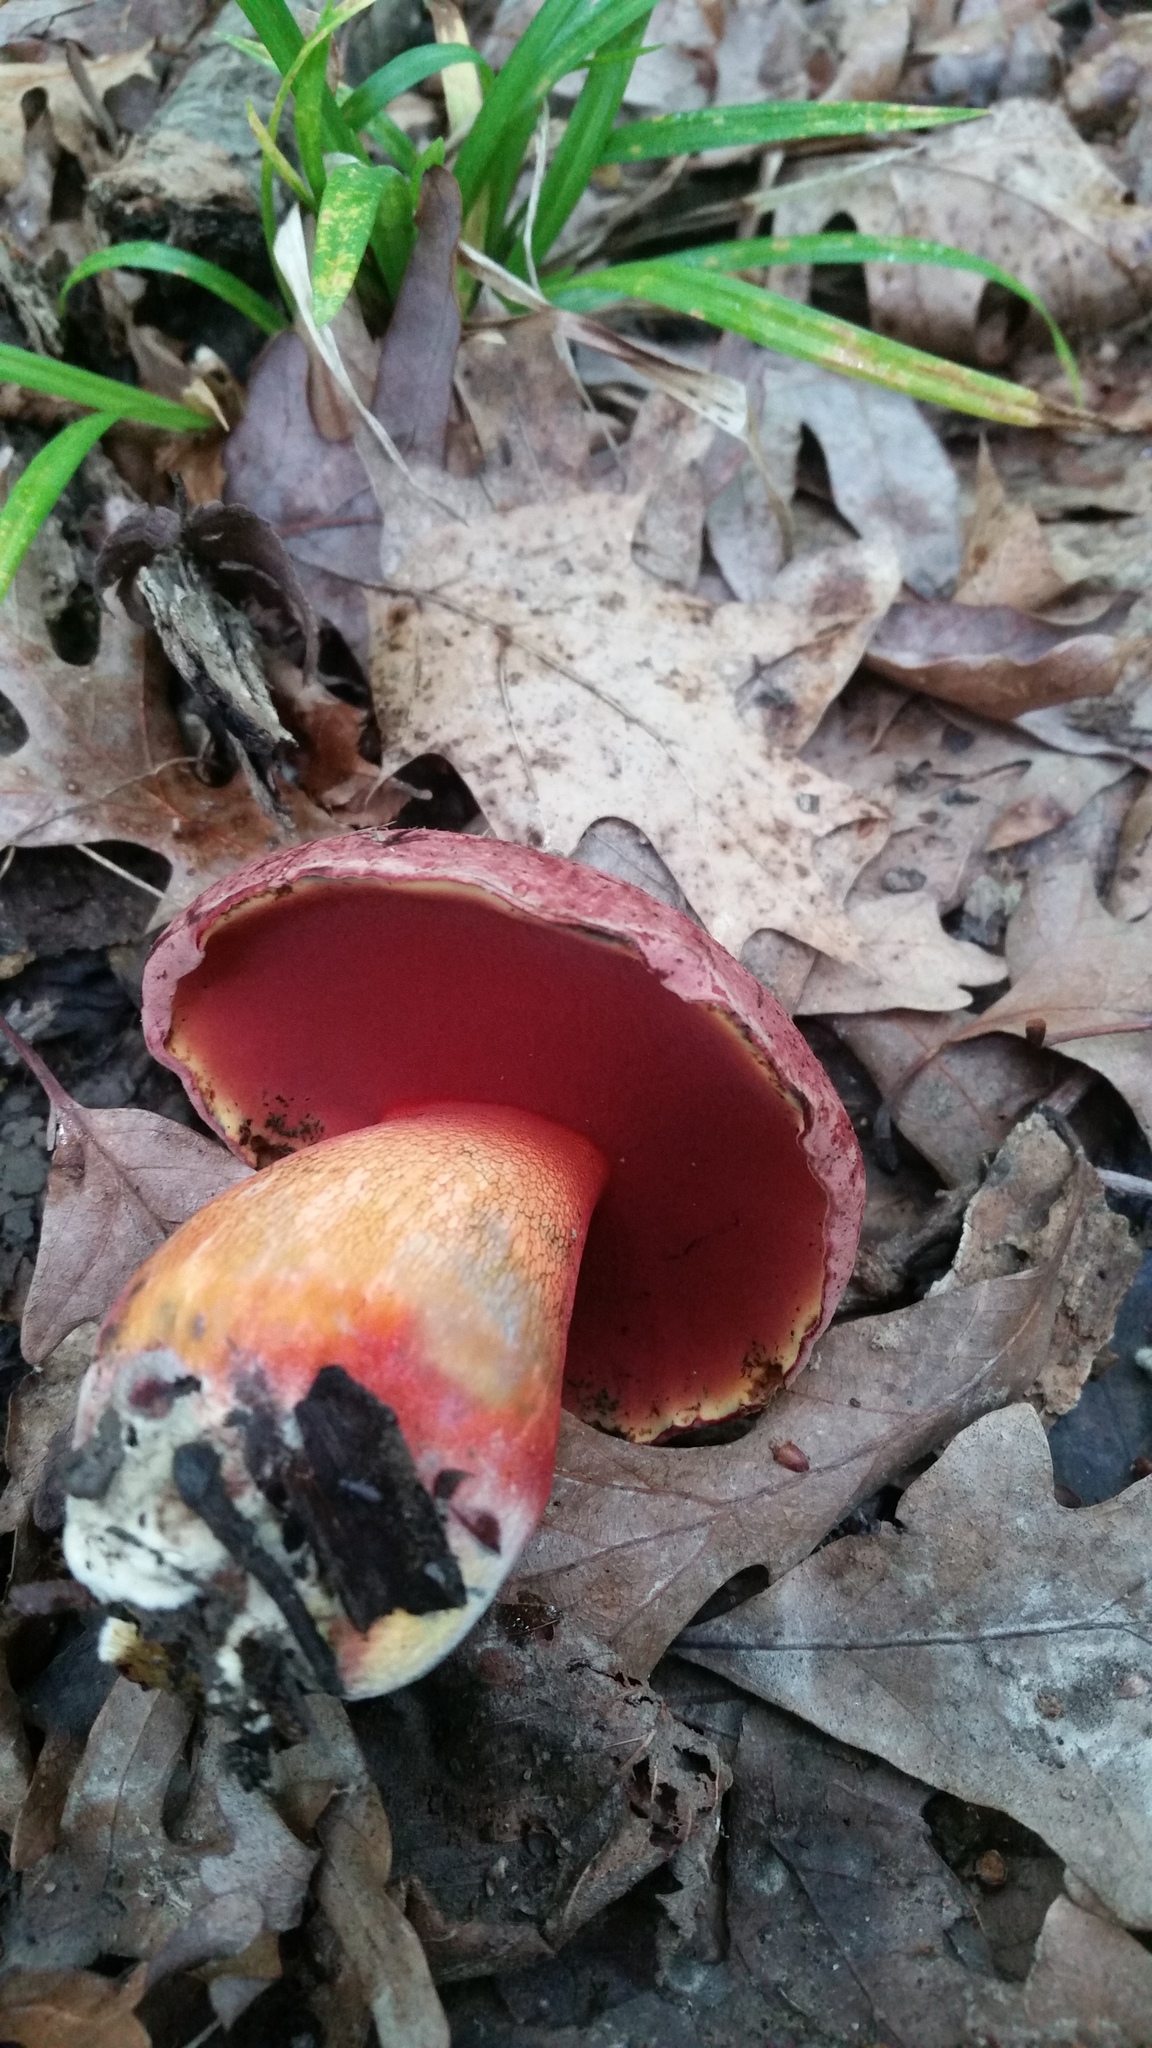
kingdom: Fungi
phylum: Basidiomycota
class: Agaricomycetes
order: Boletales
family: Boletaceae
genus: Boletus
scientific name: Boletus rubroflammeus
